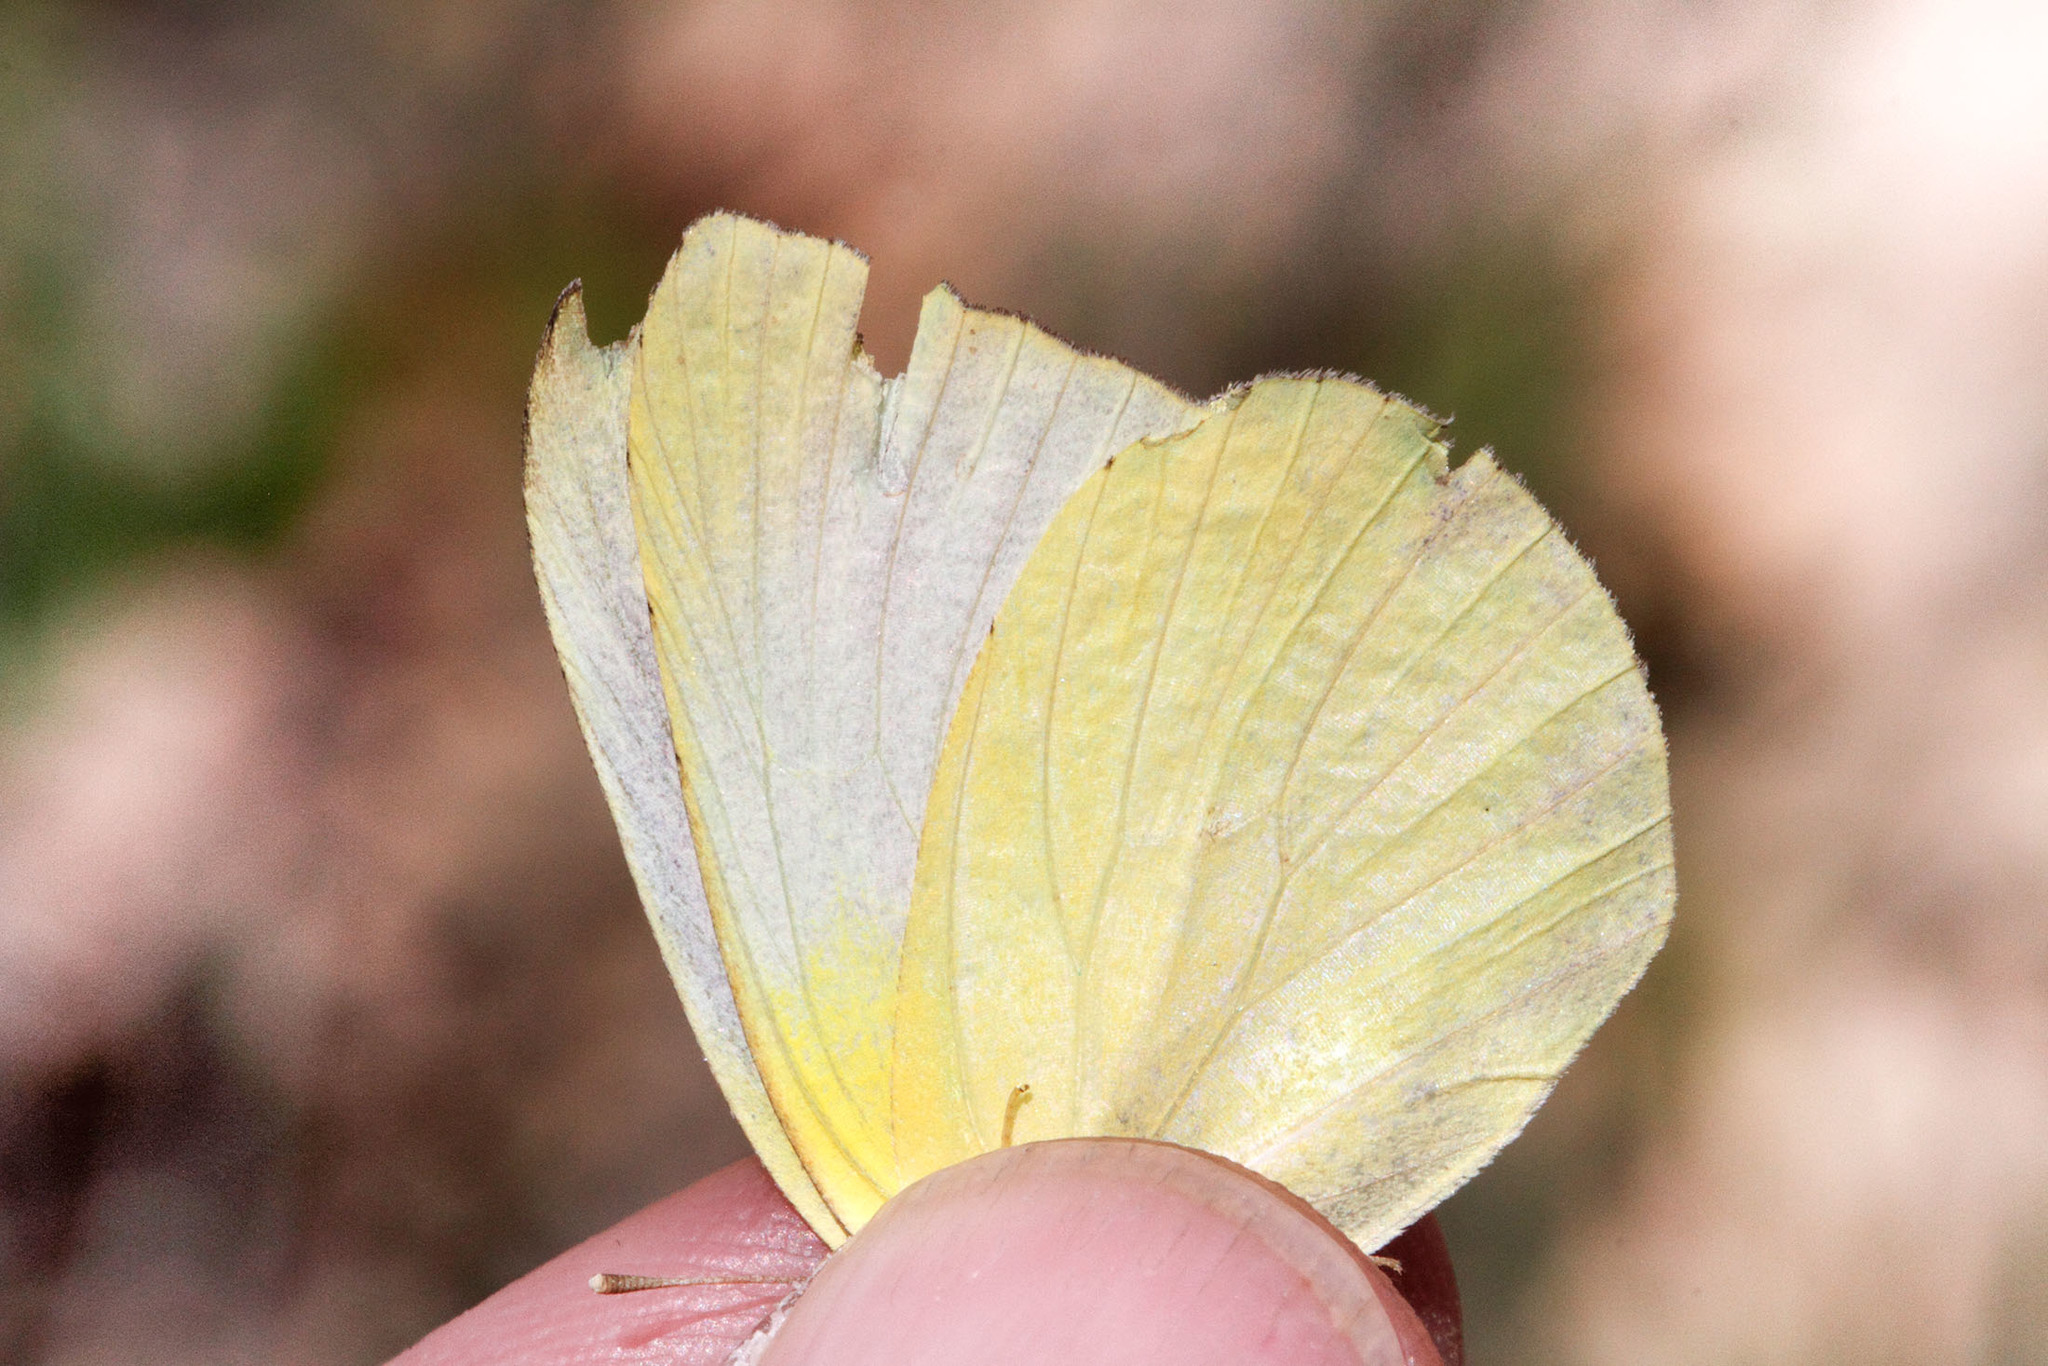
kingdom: Animalia
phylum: Arthropoda
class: Insecta
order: Lepidoptera
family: Pieridae
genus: Kricogonia
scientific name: Kricogonia lyside
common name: Guayacan sulphur,
